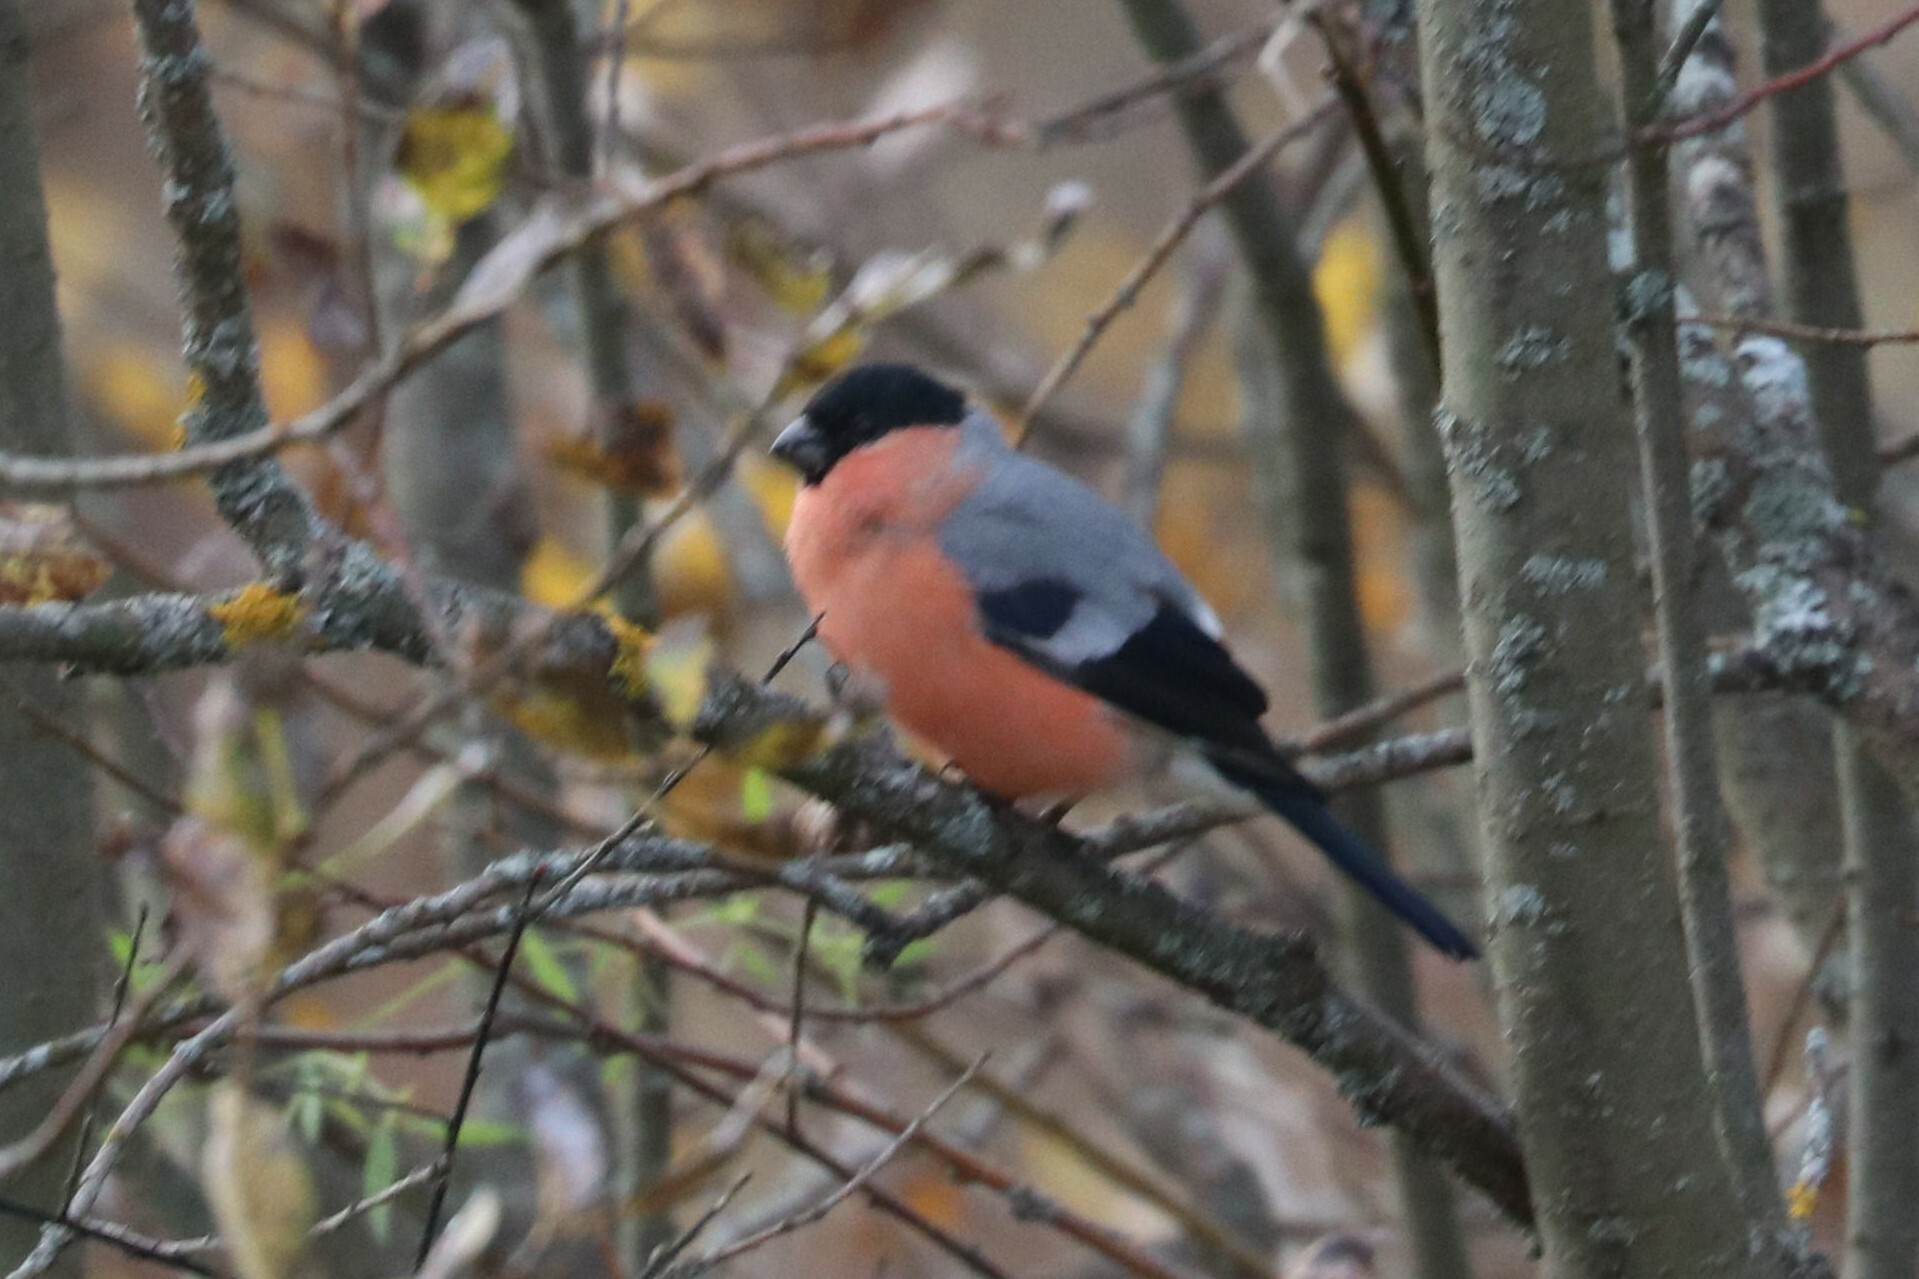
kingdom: Animalia
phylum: Chordata
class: Aves
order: Passeriformes
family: Fringillidae
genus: Pyrrhula
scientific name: Pyrrhula pyrrhula
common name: Eurasian bullfinch
